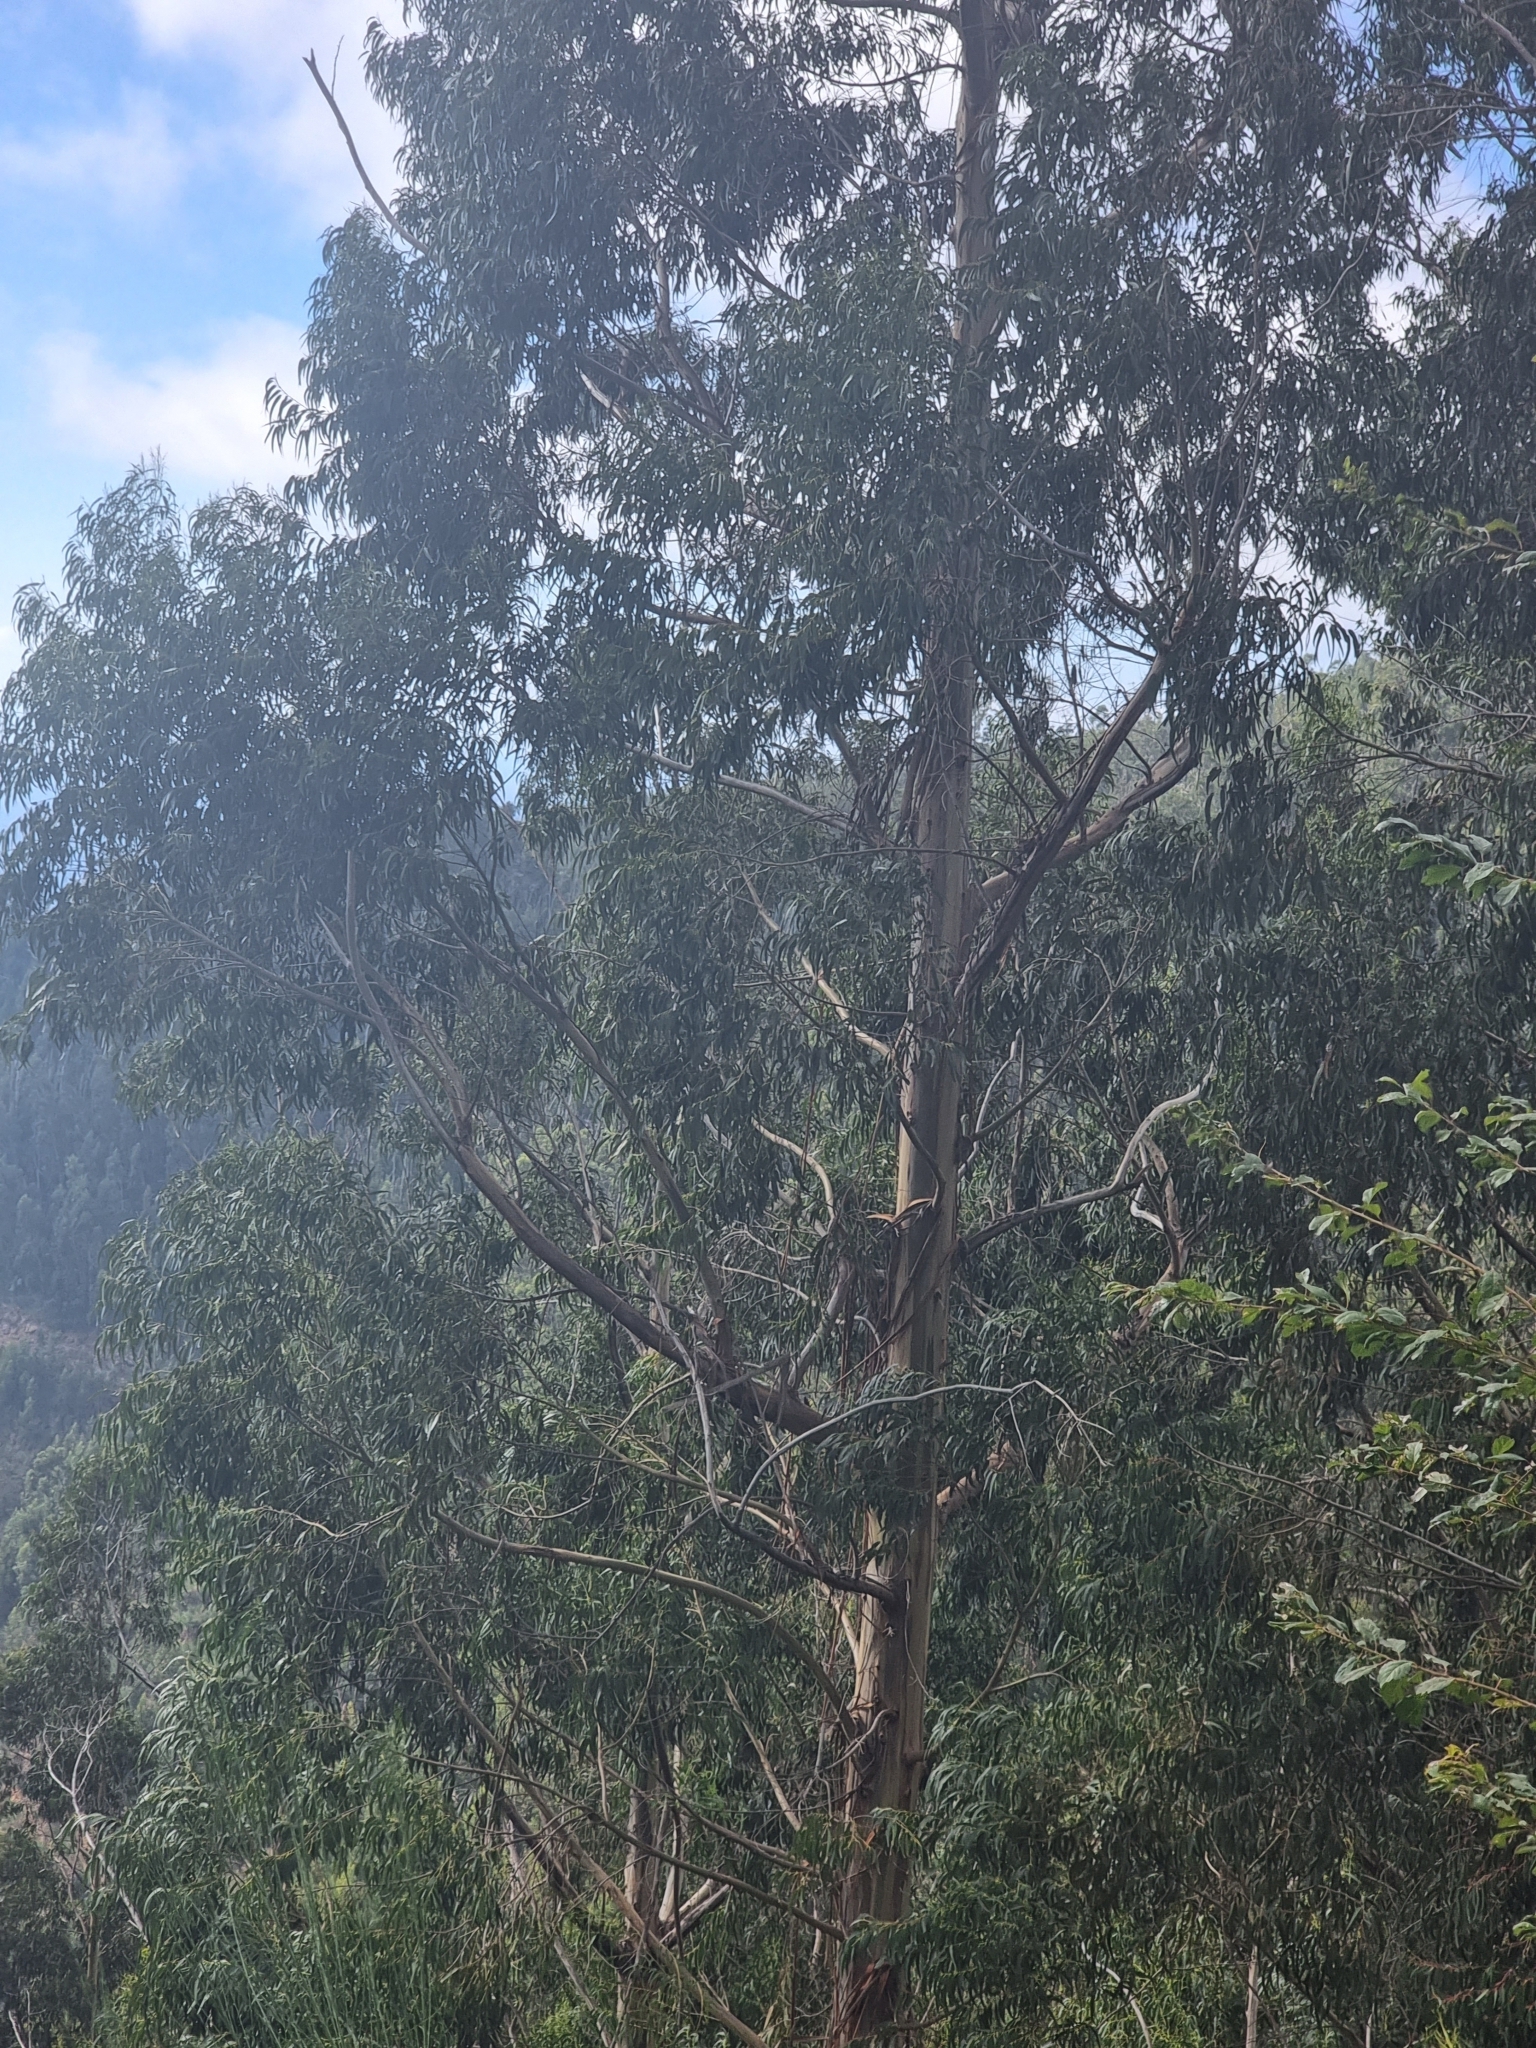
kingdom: Plantae
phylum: Tracheophyta
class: Magnoliopsida
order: Myrtales
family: Myrtaceae
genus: Eucalyptus
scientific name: Eucalyptus globulus
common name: Southern blue-gum
